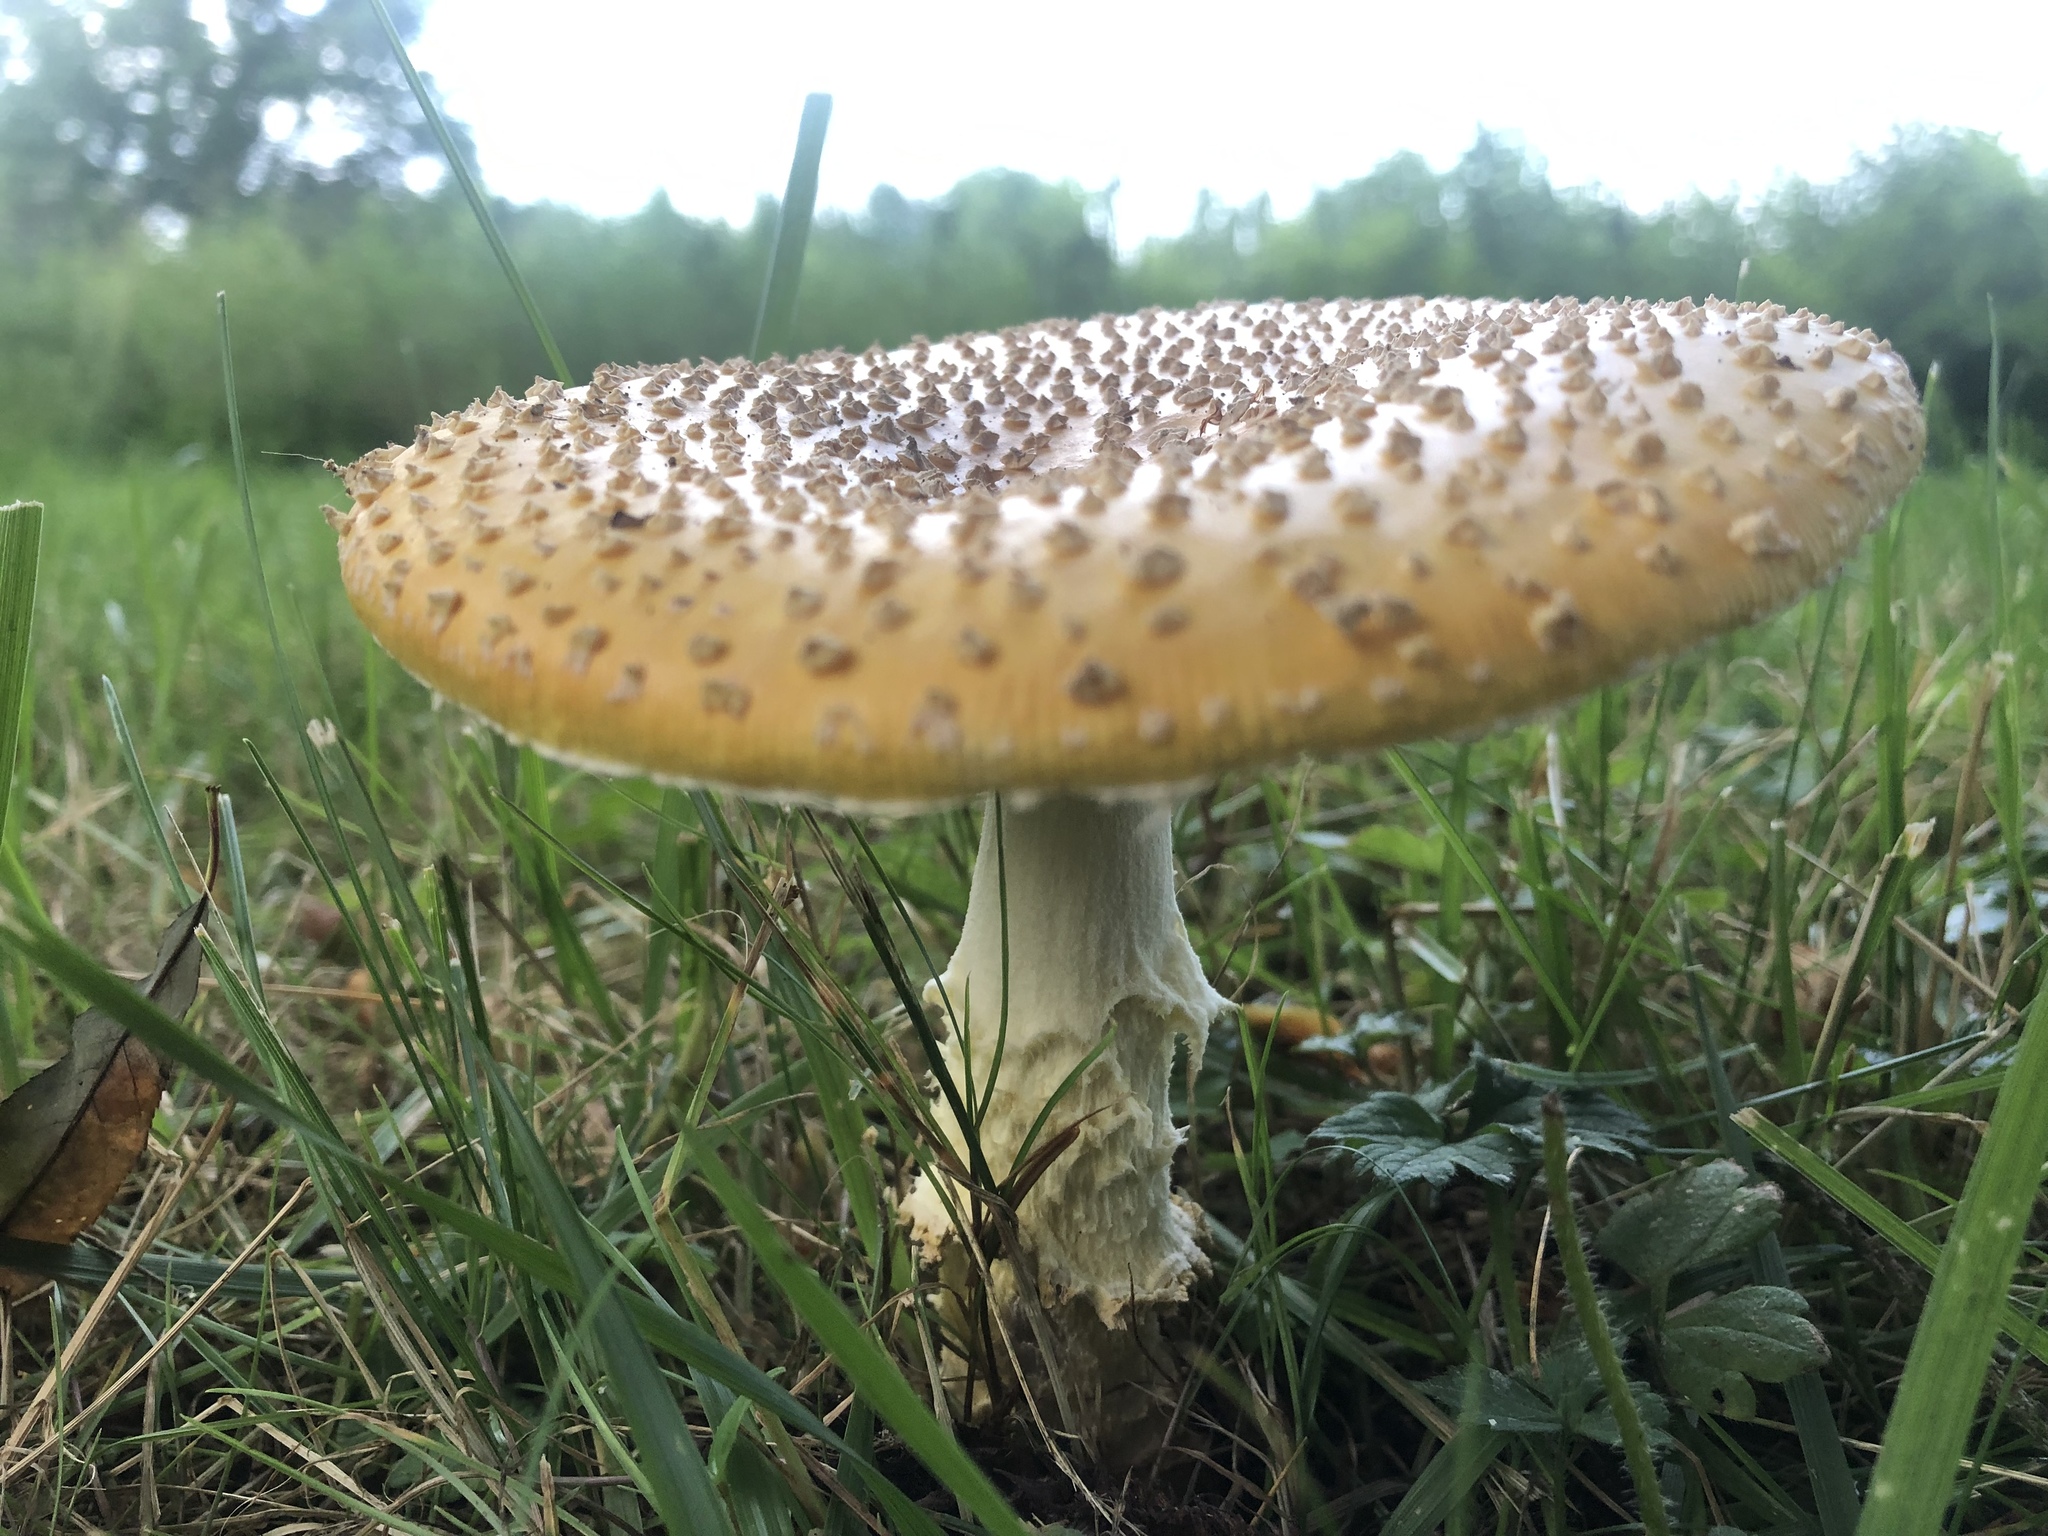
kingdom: Fungi
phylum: Basidiomycota
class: Agaricomycetes
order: Agaricales
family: Amanitaceae
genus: Amanita
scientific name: Amanita muscaria
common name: Fly agaric
